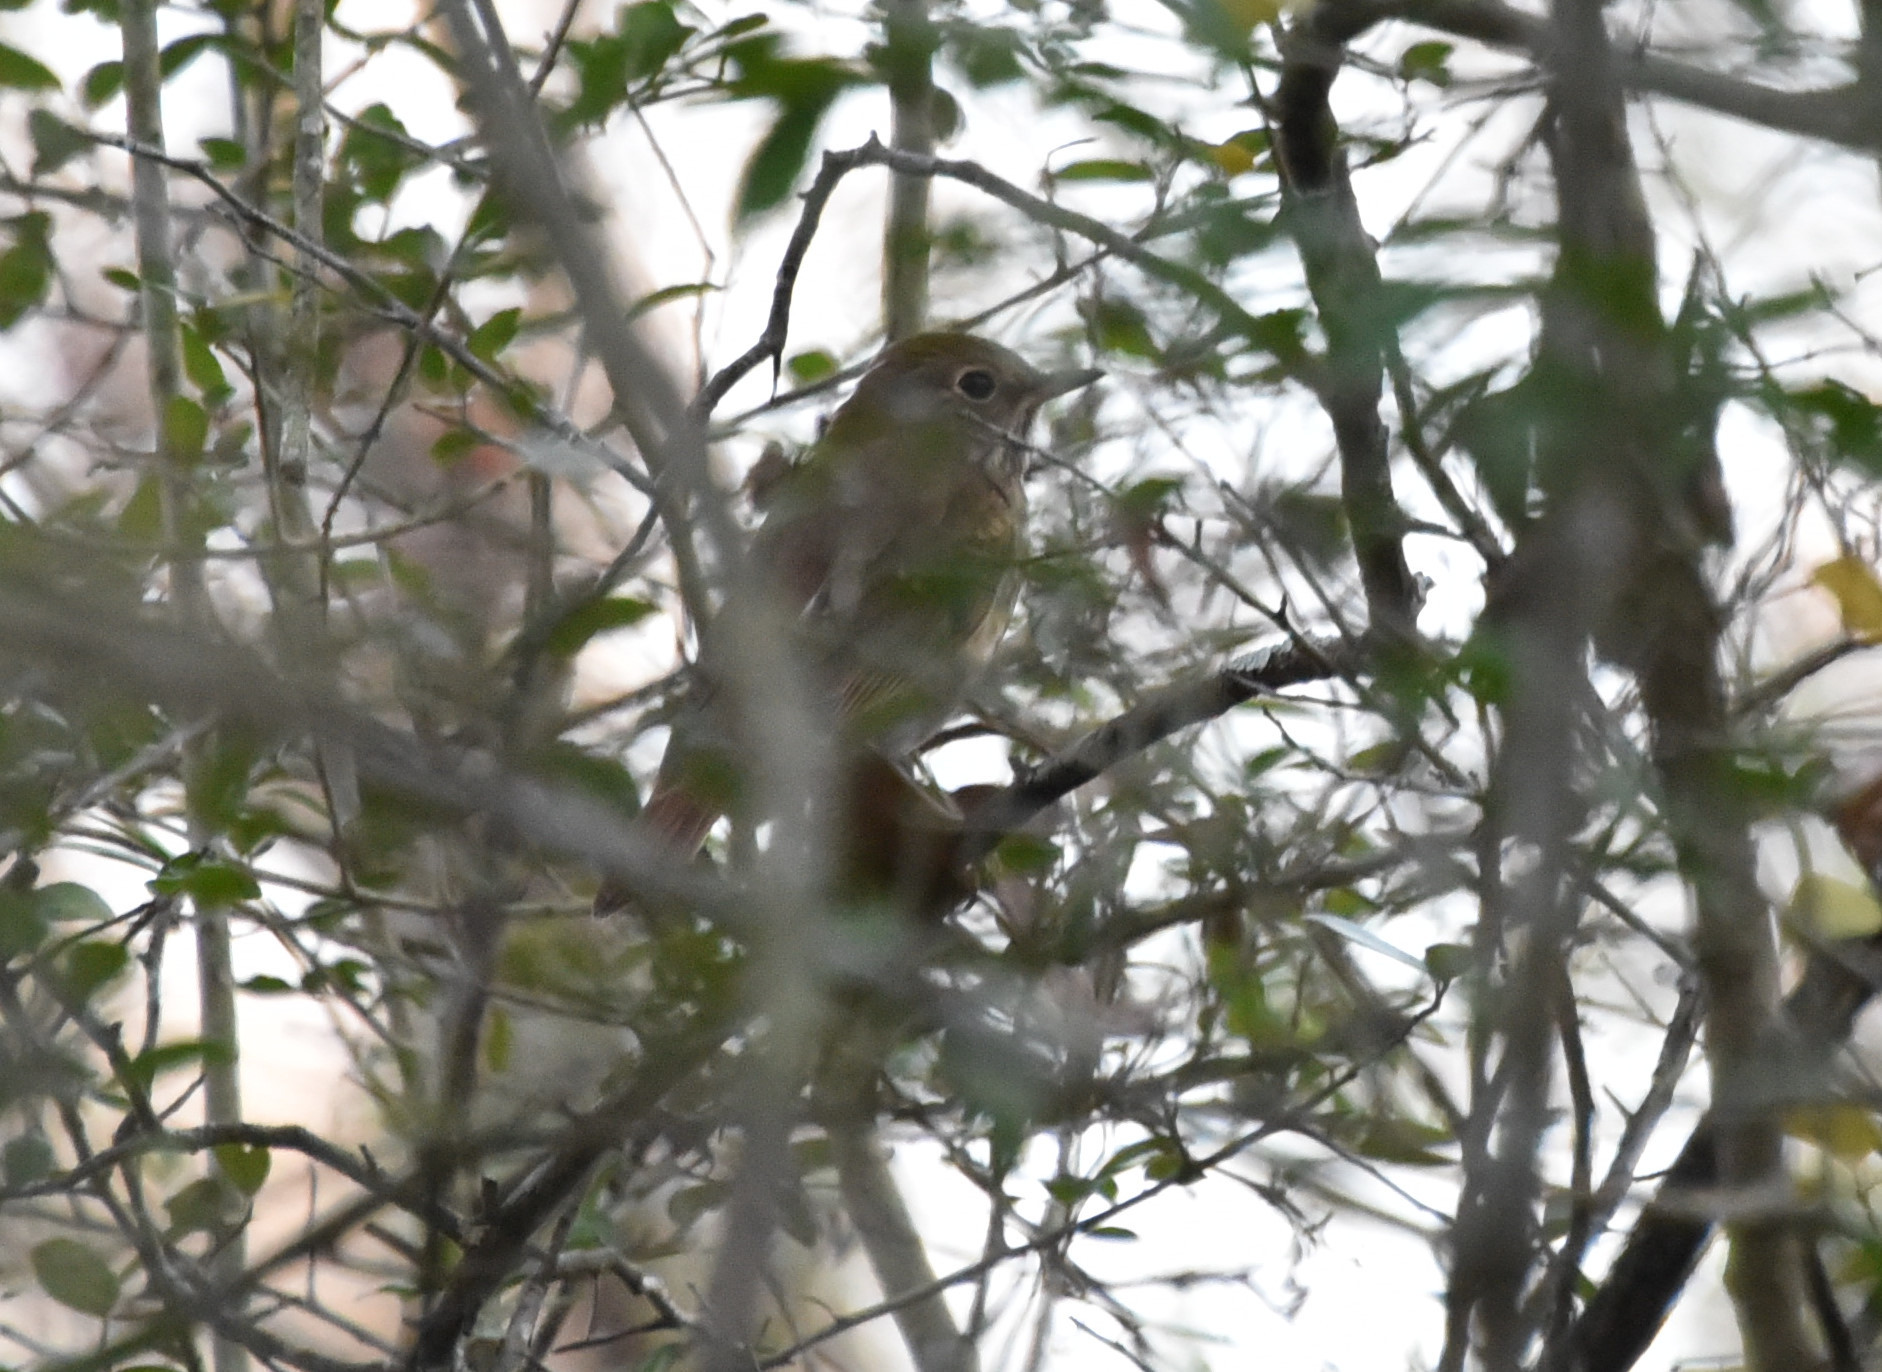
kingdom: Animalia
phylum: Chordata
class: Aves
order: Passeriformes
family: Turdidae
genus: Catharus
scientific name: Catharus guttatus
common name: Hermit thrush
